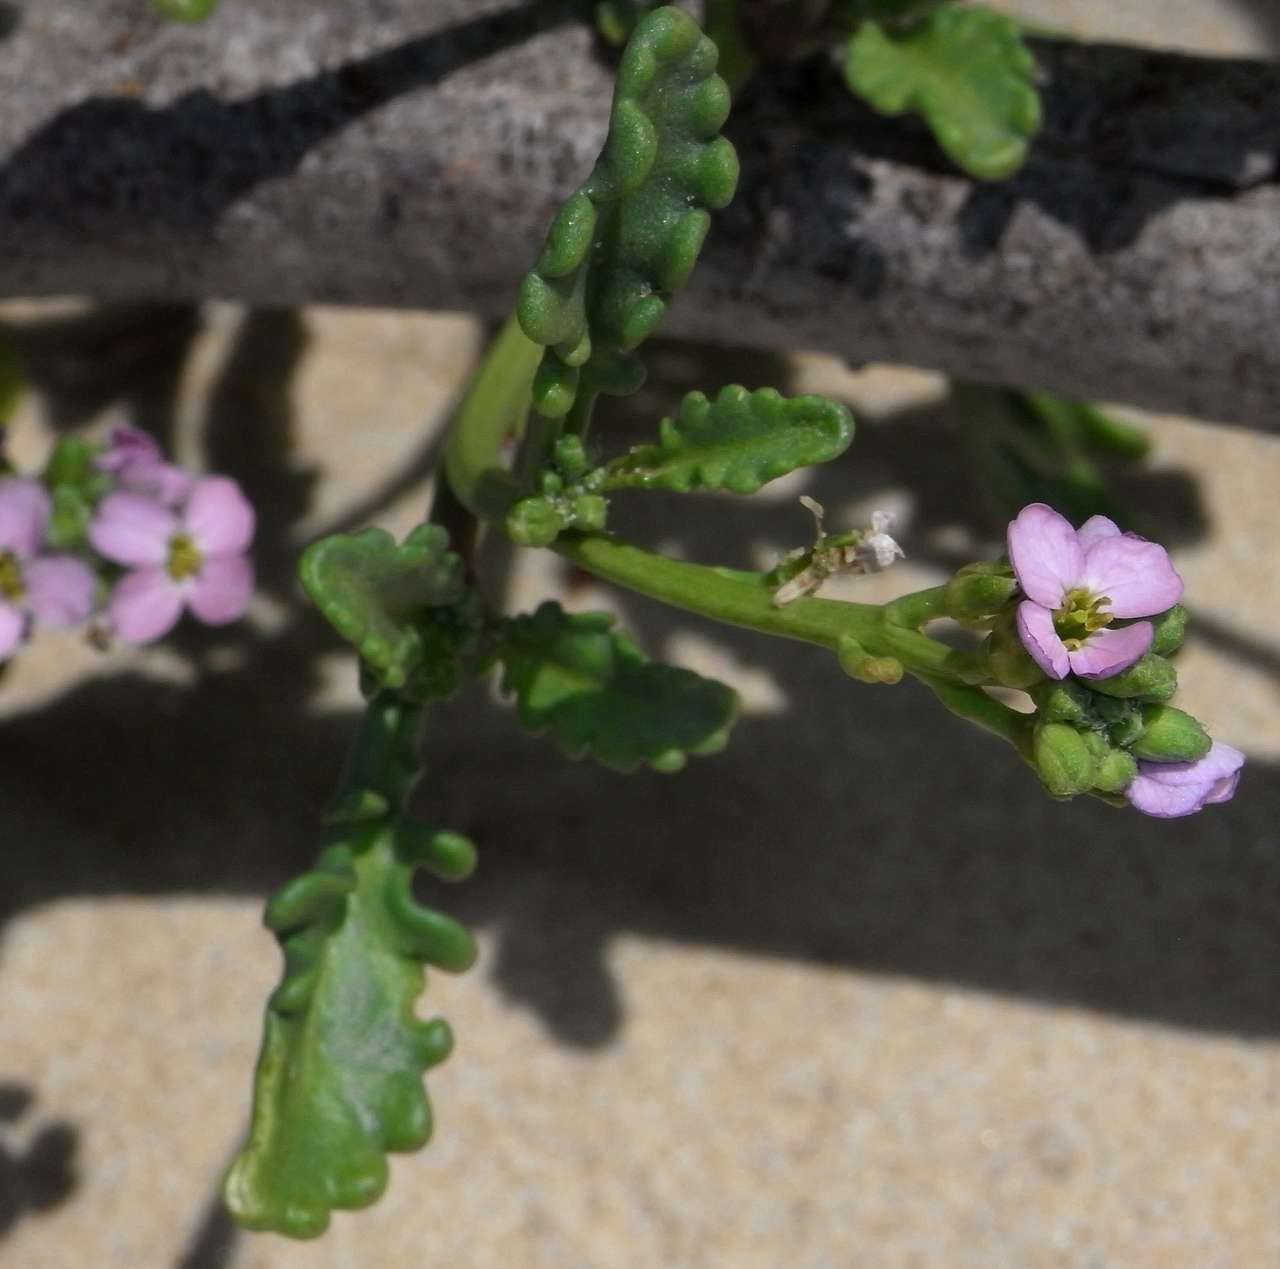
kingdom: Plantae
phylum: Tracheophyta
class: Magnoliopsida
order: Brassicales
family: Brassicaceae
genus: Cakile
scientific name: Cakile maritima
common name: Sea rocket
